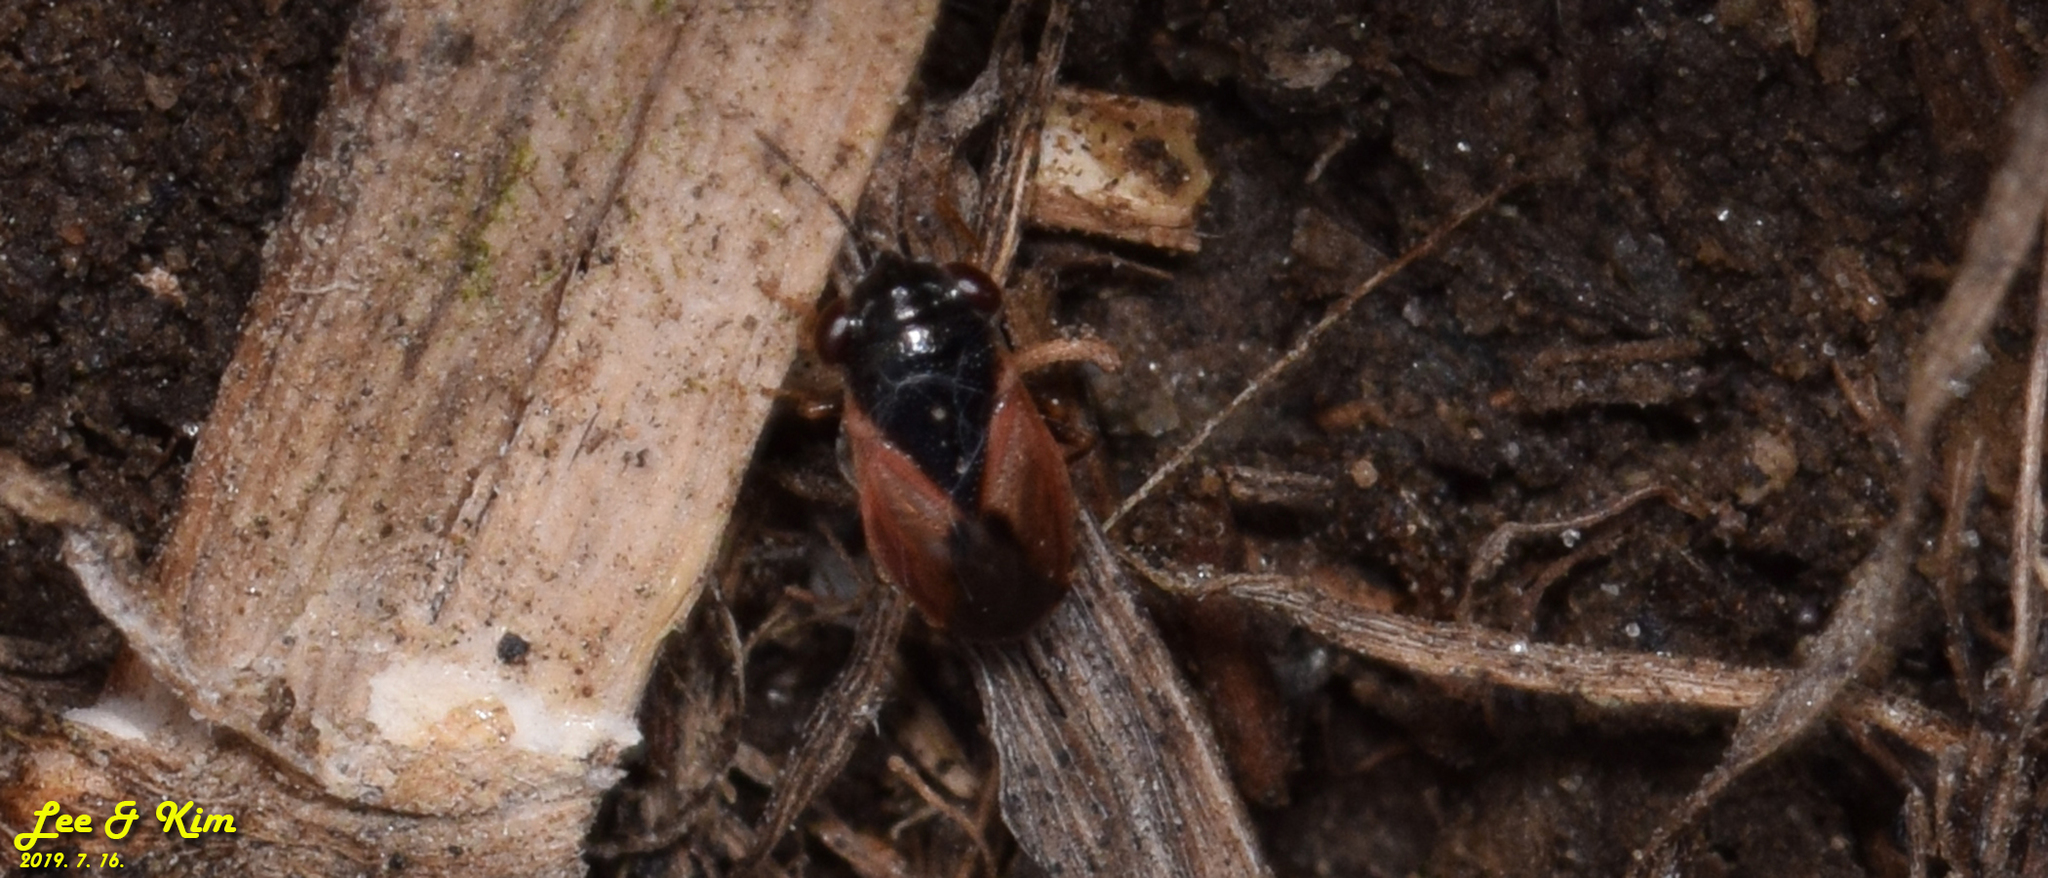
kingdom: Animalia
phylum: Arthropoda
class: Insecta
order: Hemiptera
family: Geocoridae
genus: Geocoris
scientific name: Geocoris pallidipennis
